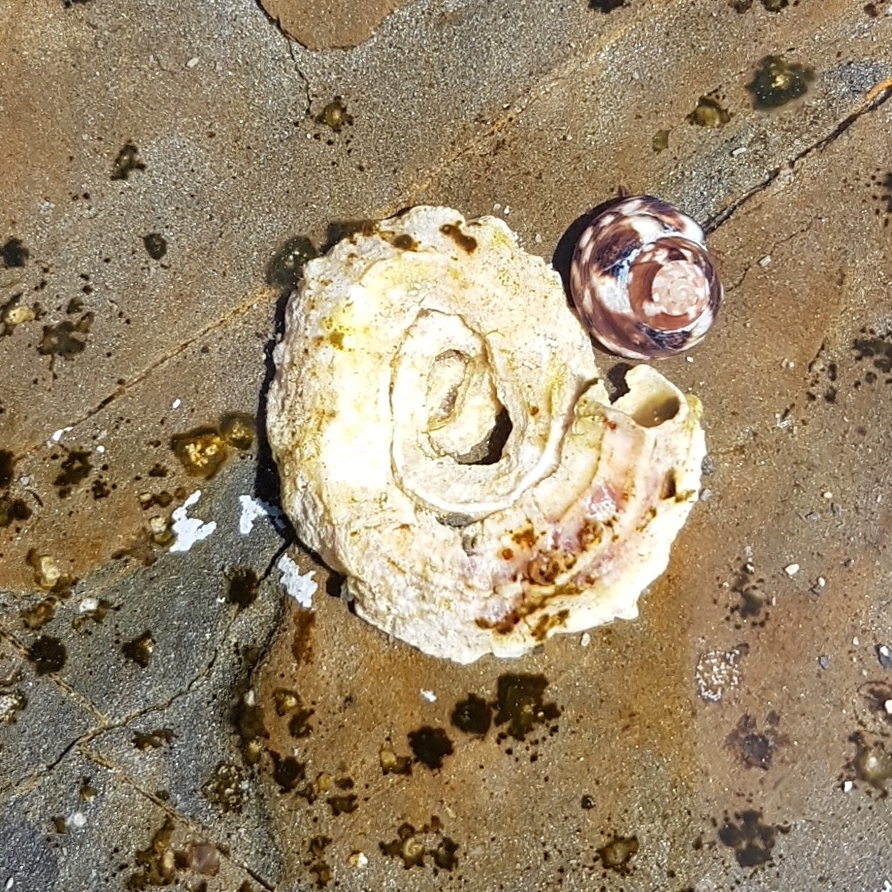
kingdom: Animalia
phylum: Mollusca
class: Gastropoda
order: Littorinimorpha
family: Vermetidae
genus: Vermetus
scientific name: Vermetus triquetrus
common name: Worm shell
